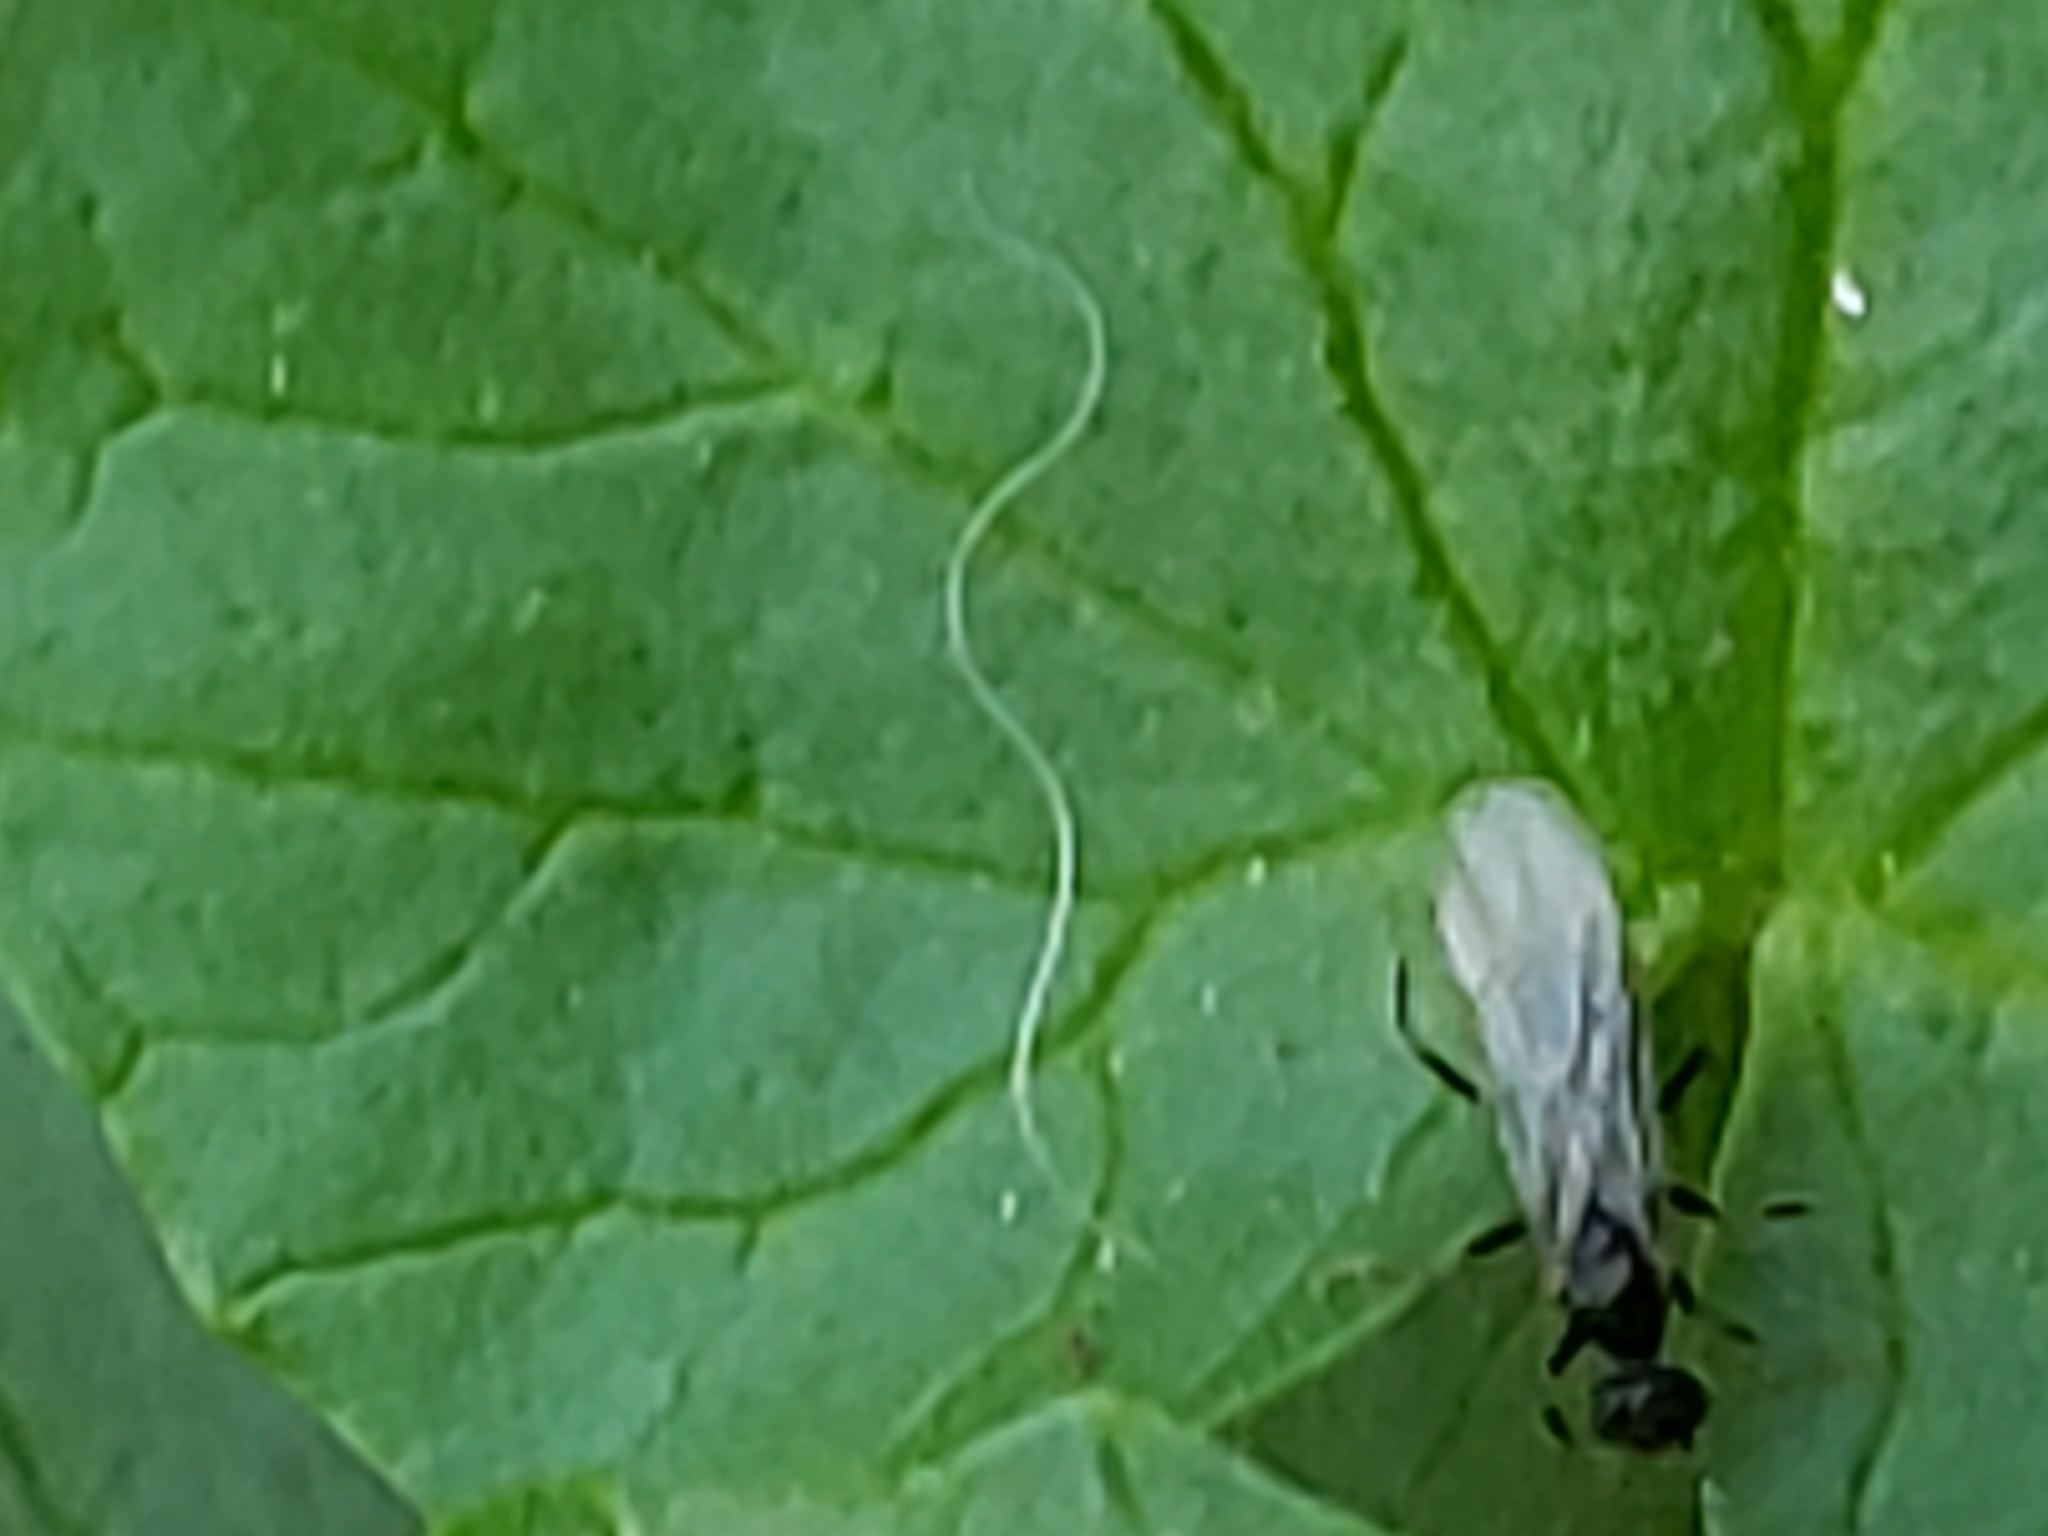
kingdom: Animalia
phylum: Arthropoda
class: Insecta
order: Hymenoptera
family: Formicidae
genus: Prenolepis
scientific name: Prenolepis imparis
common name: Small honey ant
